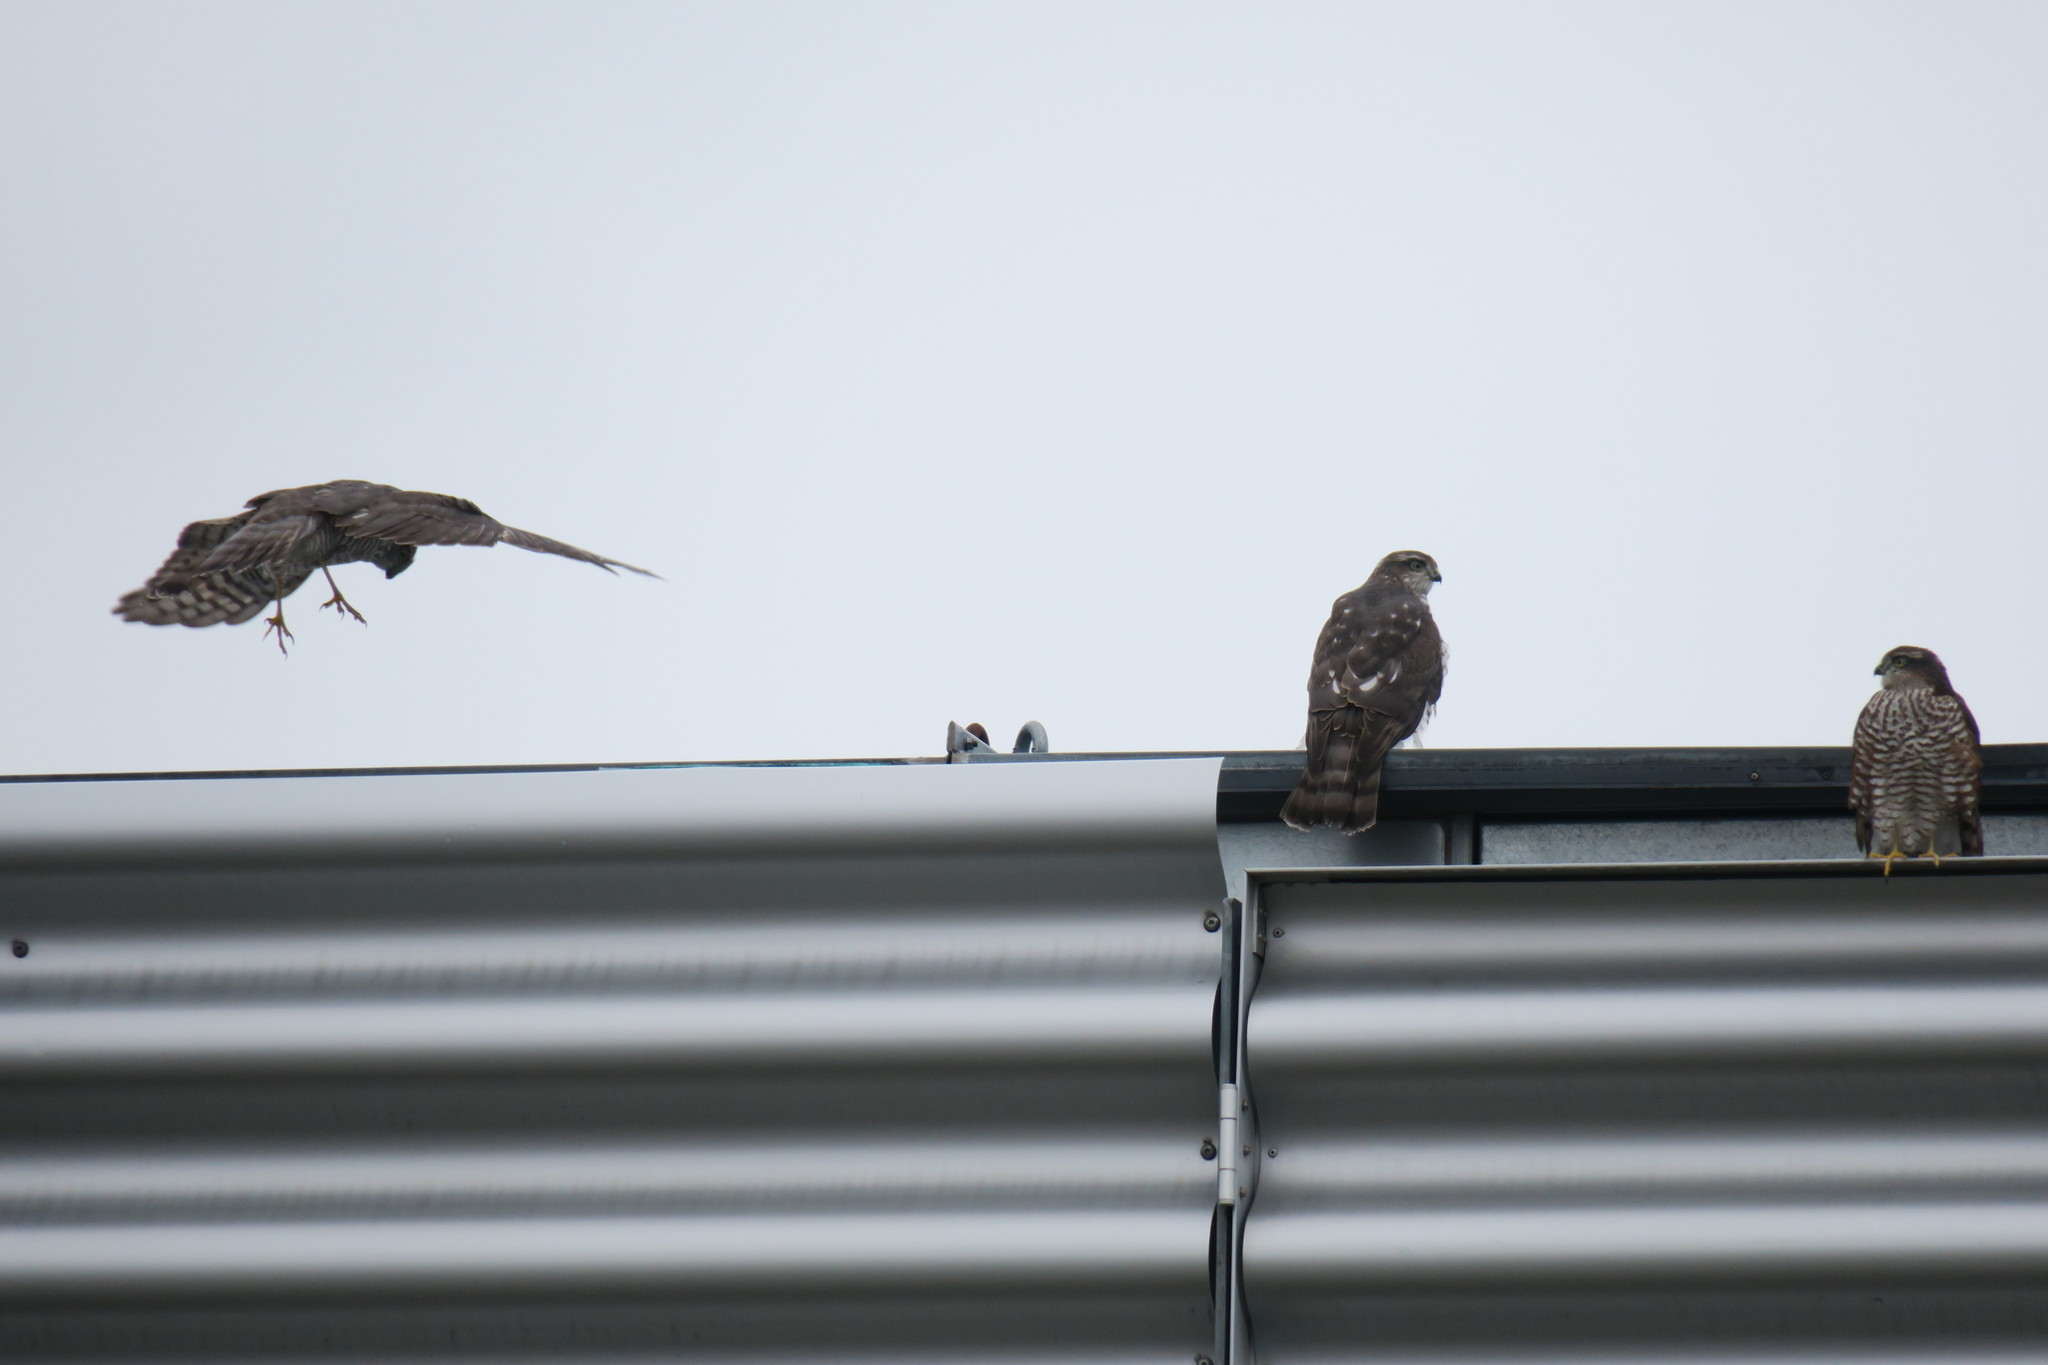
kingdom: Animalia
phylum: Chordata
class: Aves
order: Accipitriformes
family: Accipitridae
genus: Accipiter
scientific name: Accipiter nisus
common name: Eurasian sparrowhawk
